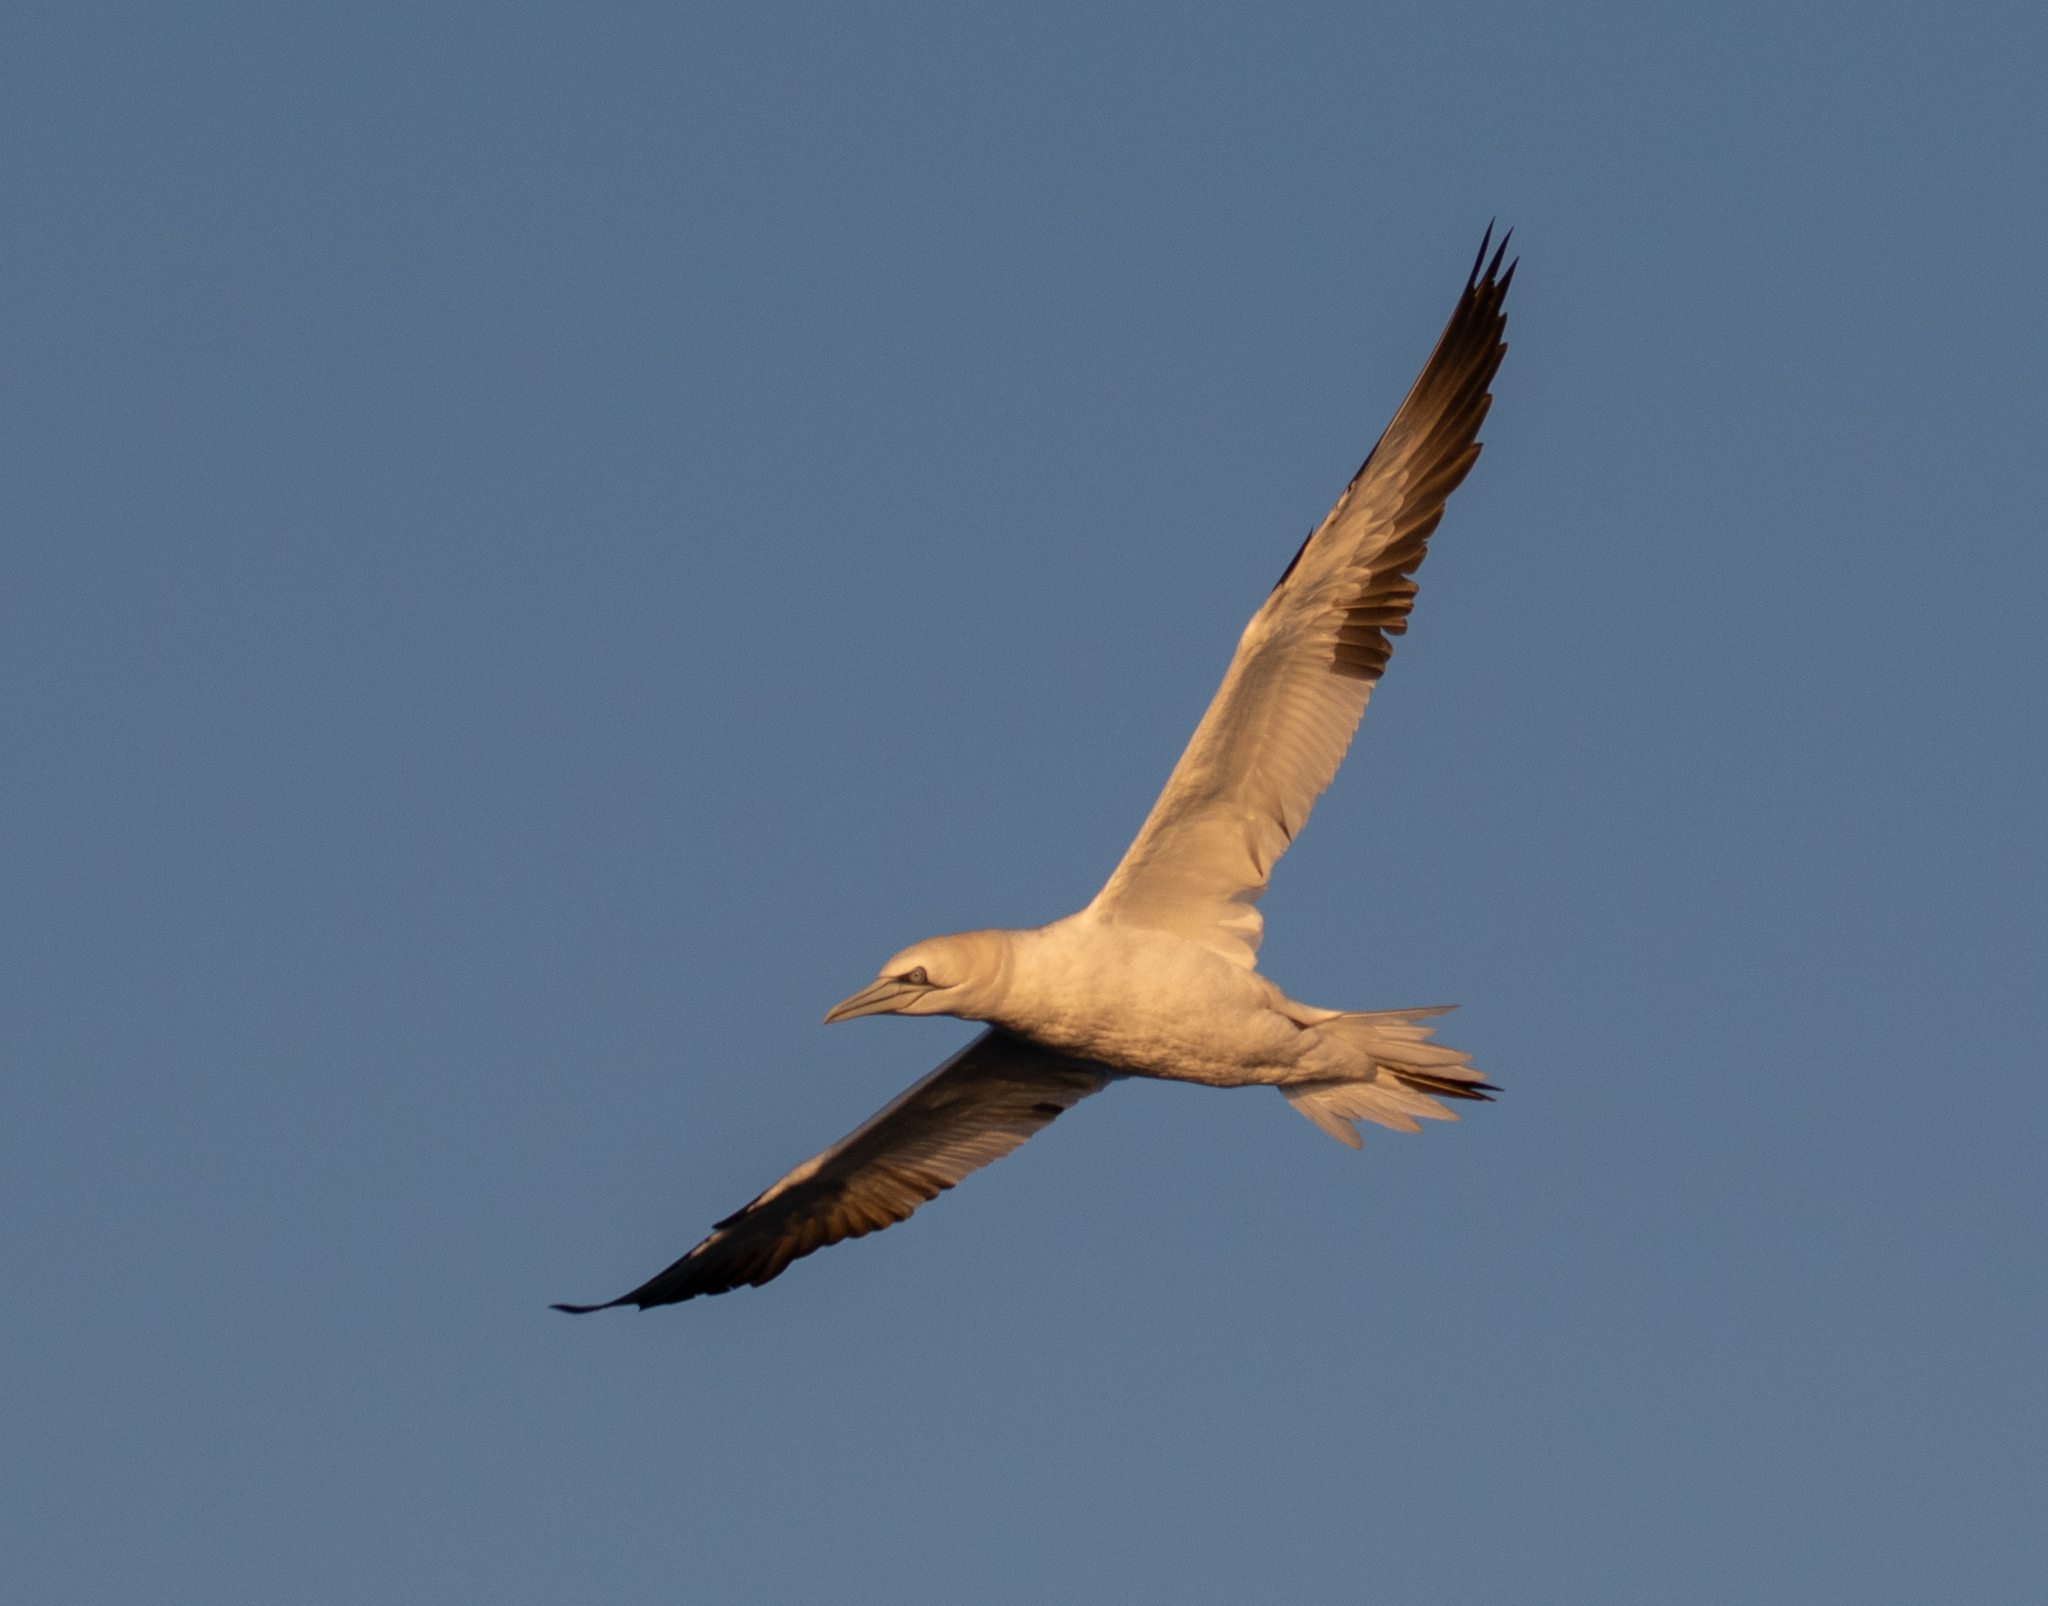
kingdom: Animalia
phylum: Chordata
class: Aves
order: Suliformes
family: Sulidae
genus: Morus
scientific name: Morus bassanus
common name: Northern gannet
